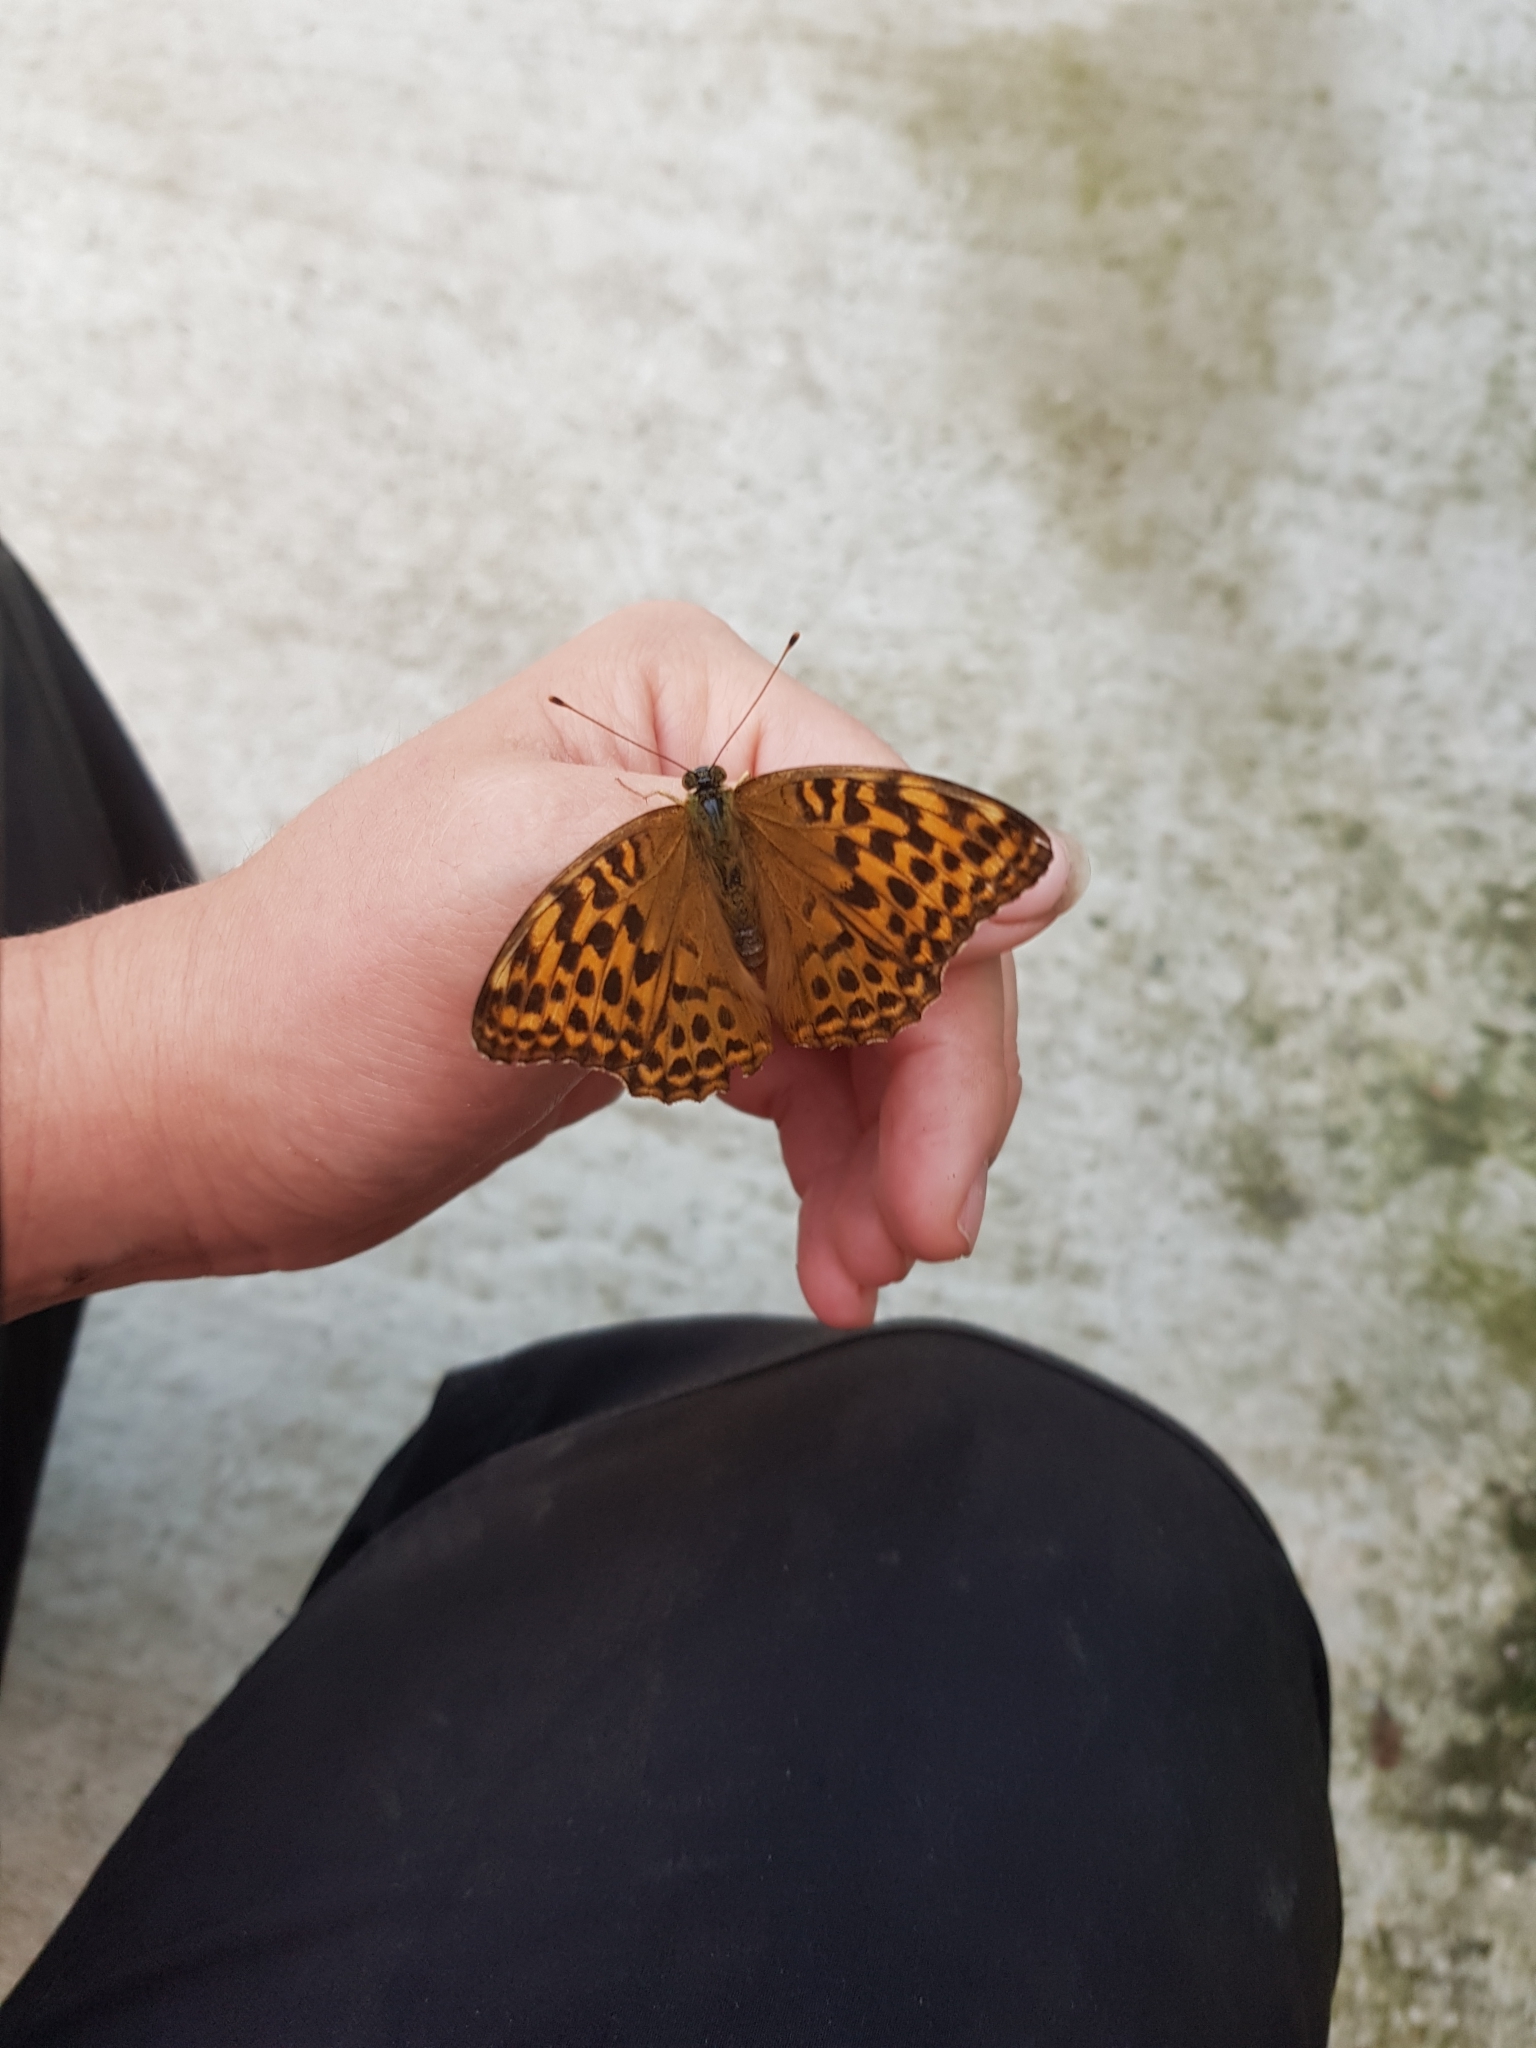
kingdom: Animalia
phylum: Arthropoda
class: Insecta
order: Lepidoptera
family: Nymphalidae
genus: Argynnis
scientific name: Argynnis paphia
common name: Silver-washed fritillary
